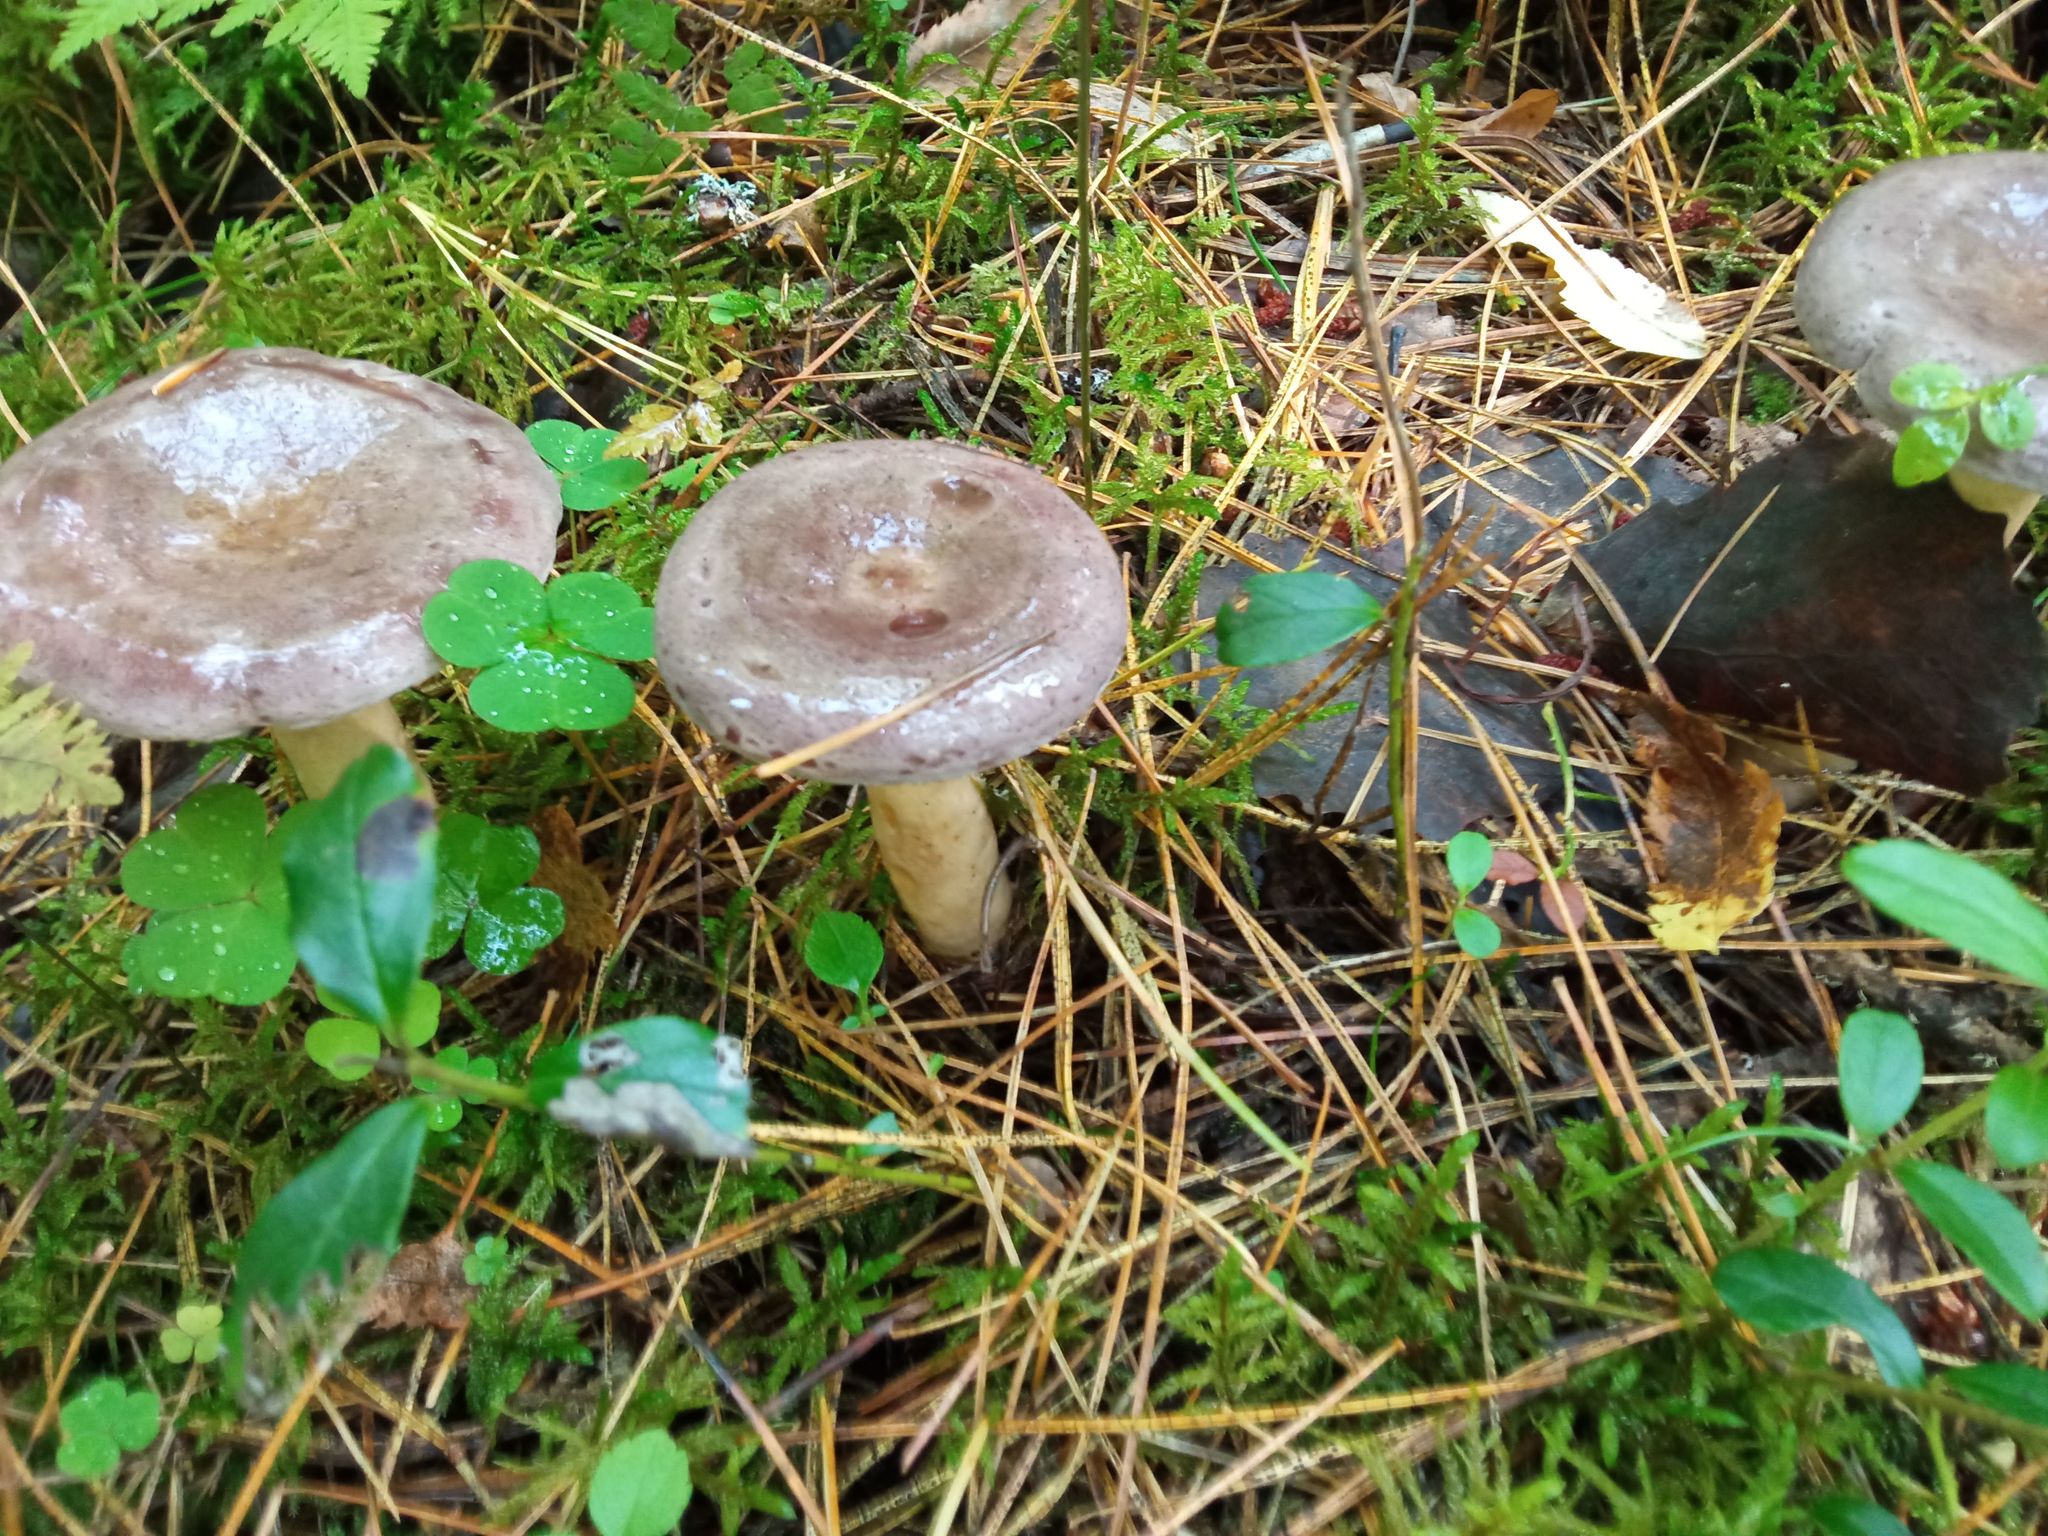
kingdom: Fungi
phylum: Basidiomycota
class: Agaricomycetes
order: Russulales
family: Russulaceae
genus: Lactarius
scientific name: Lactarius trivialis
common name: Tacked milkcap
